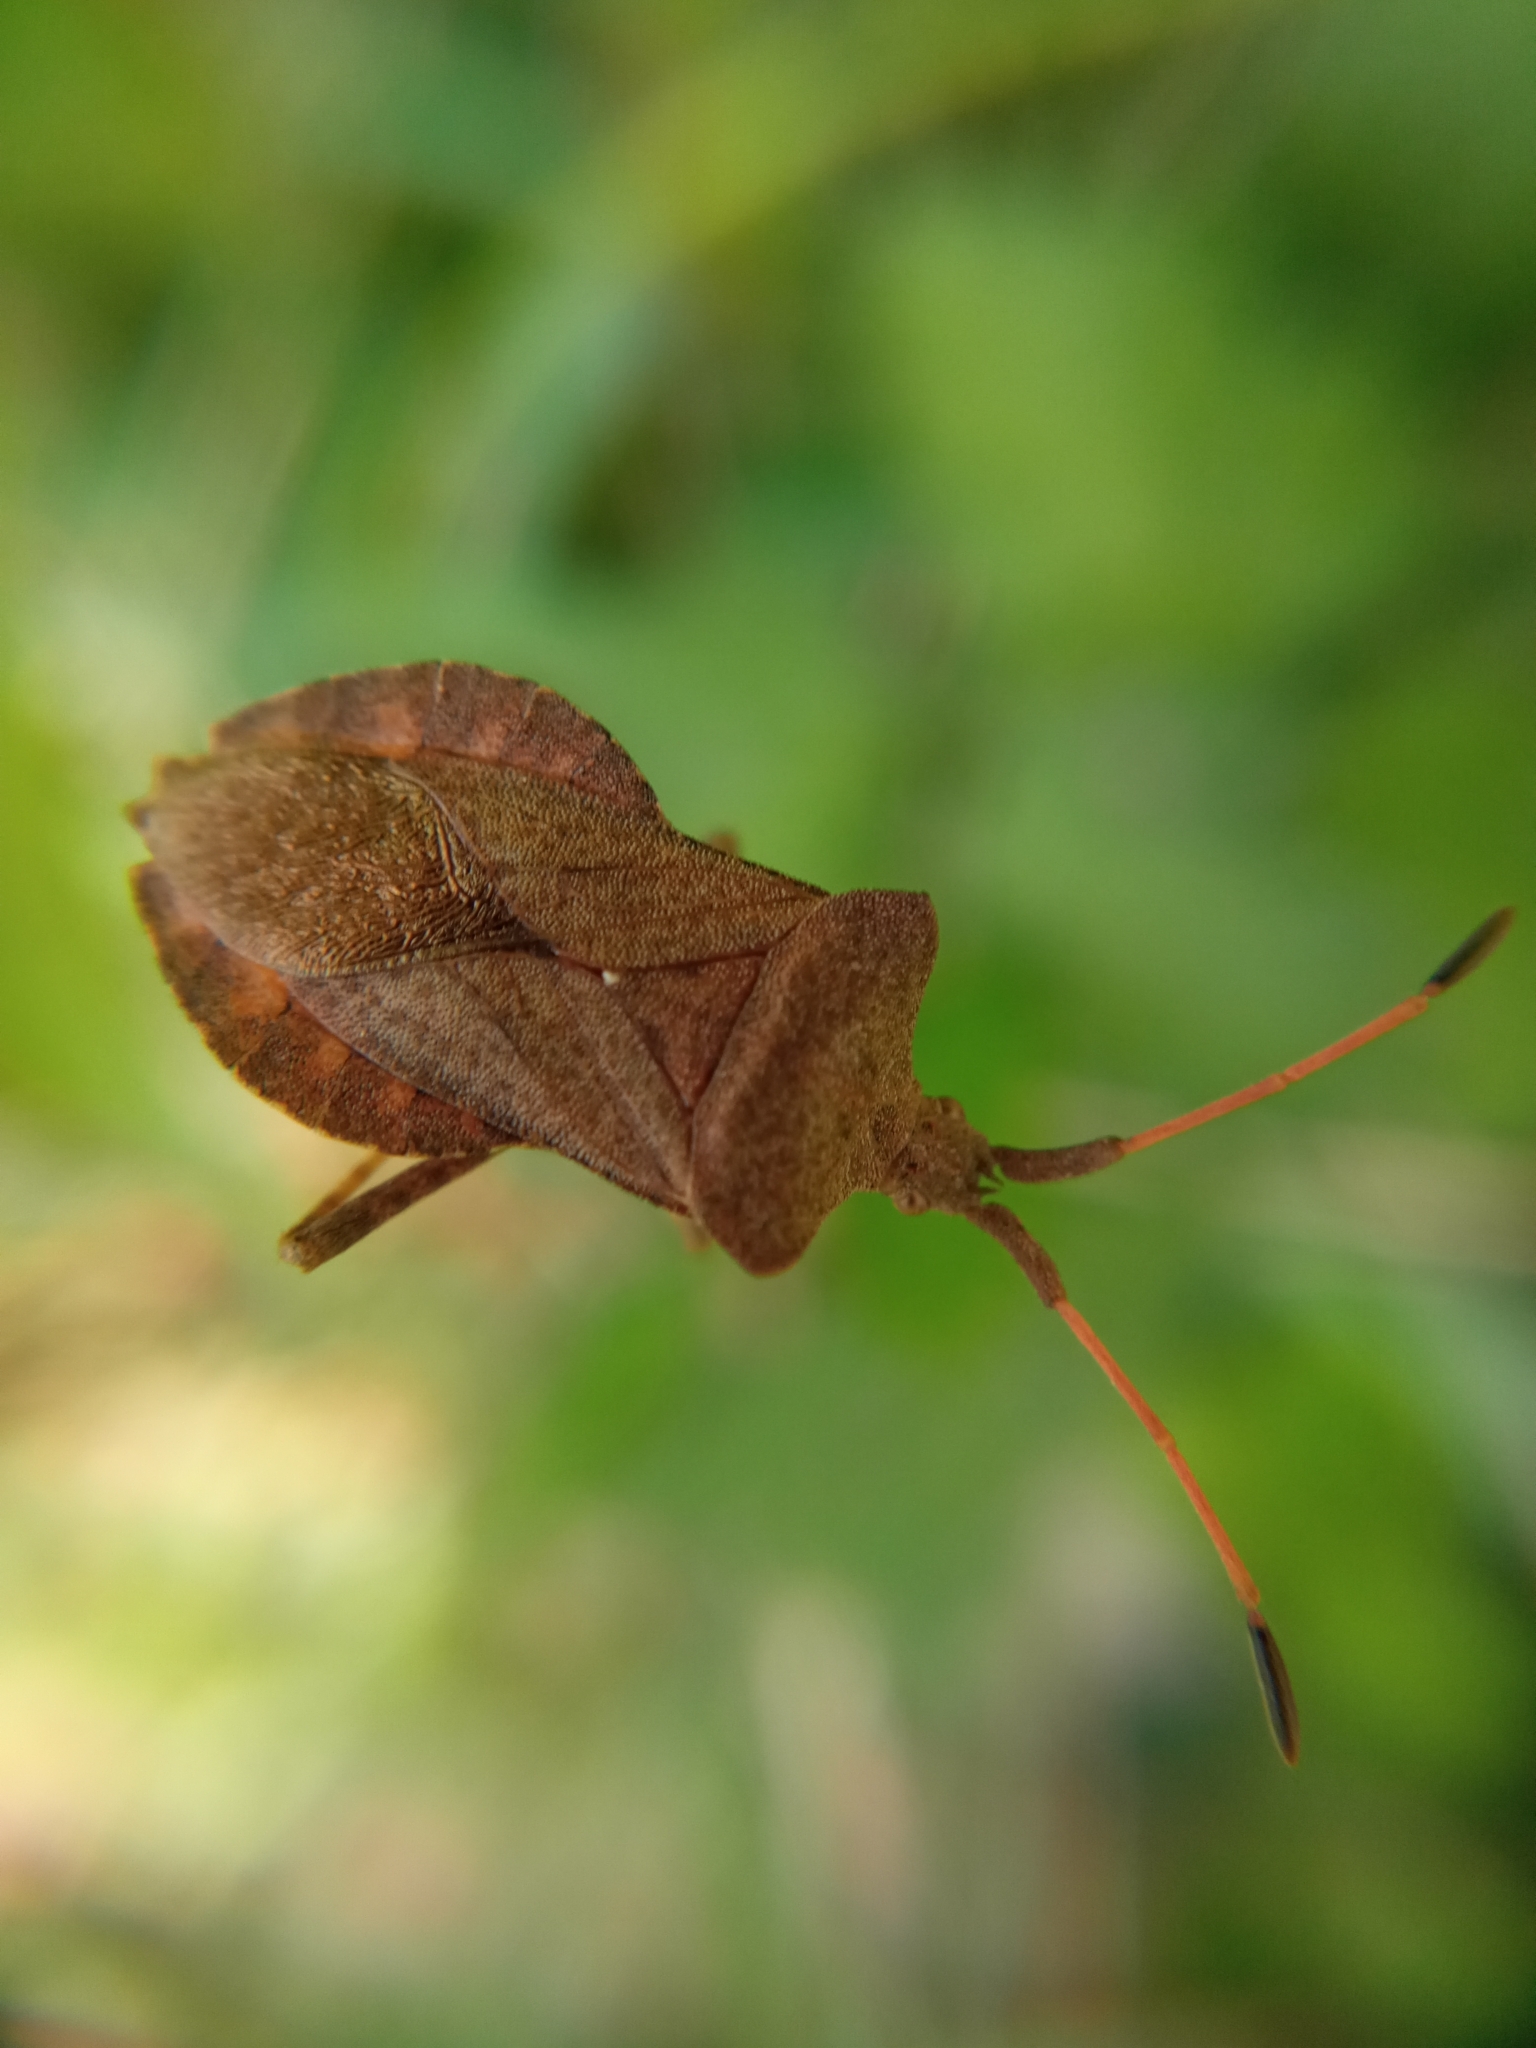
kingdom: Animalia
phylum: Arthropoda
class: Insecta
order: Hemiptera
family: Coreidae
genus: Coreus
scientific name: Coreus marginatus
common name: Dock bug
